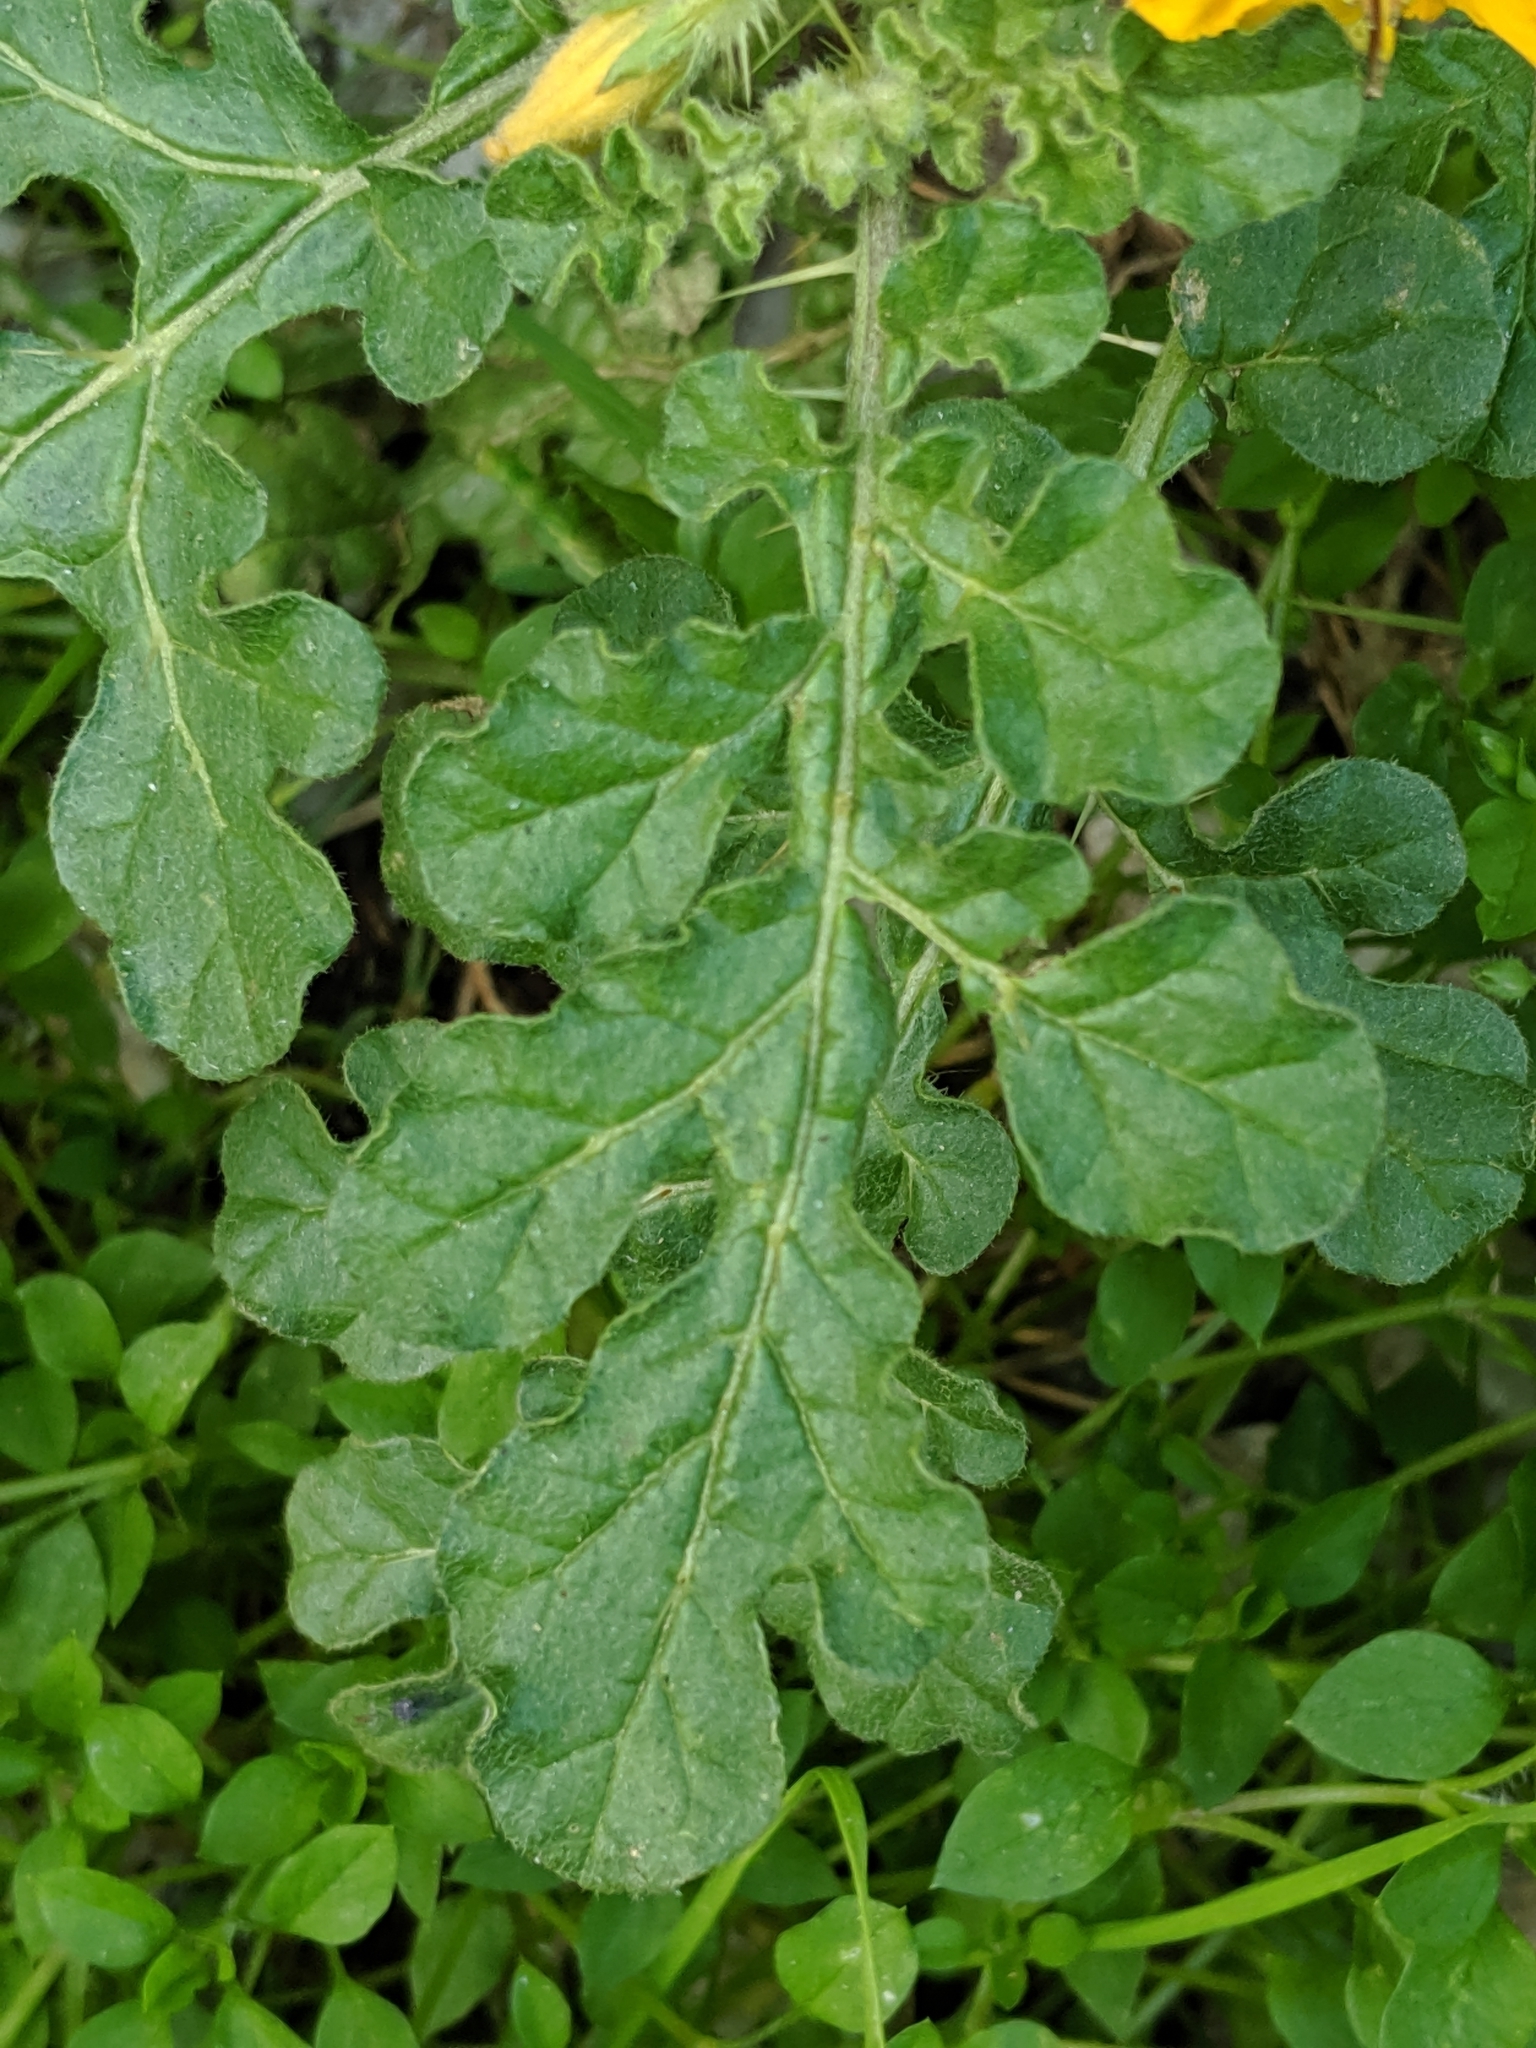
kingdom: Plantae
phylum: Tracheophyta
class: Magnoliopsida
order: Solanales
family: Solanaceae
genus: Solanum
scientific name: Solanum angustifolium
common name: Buffalobur nightshade
